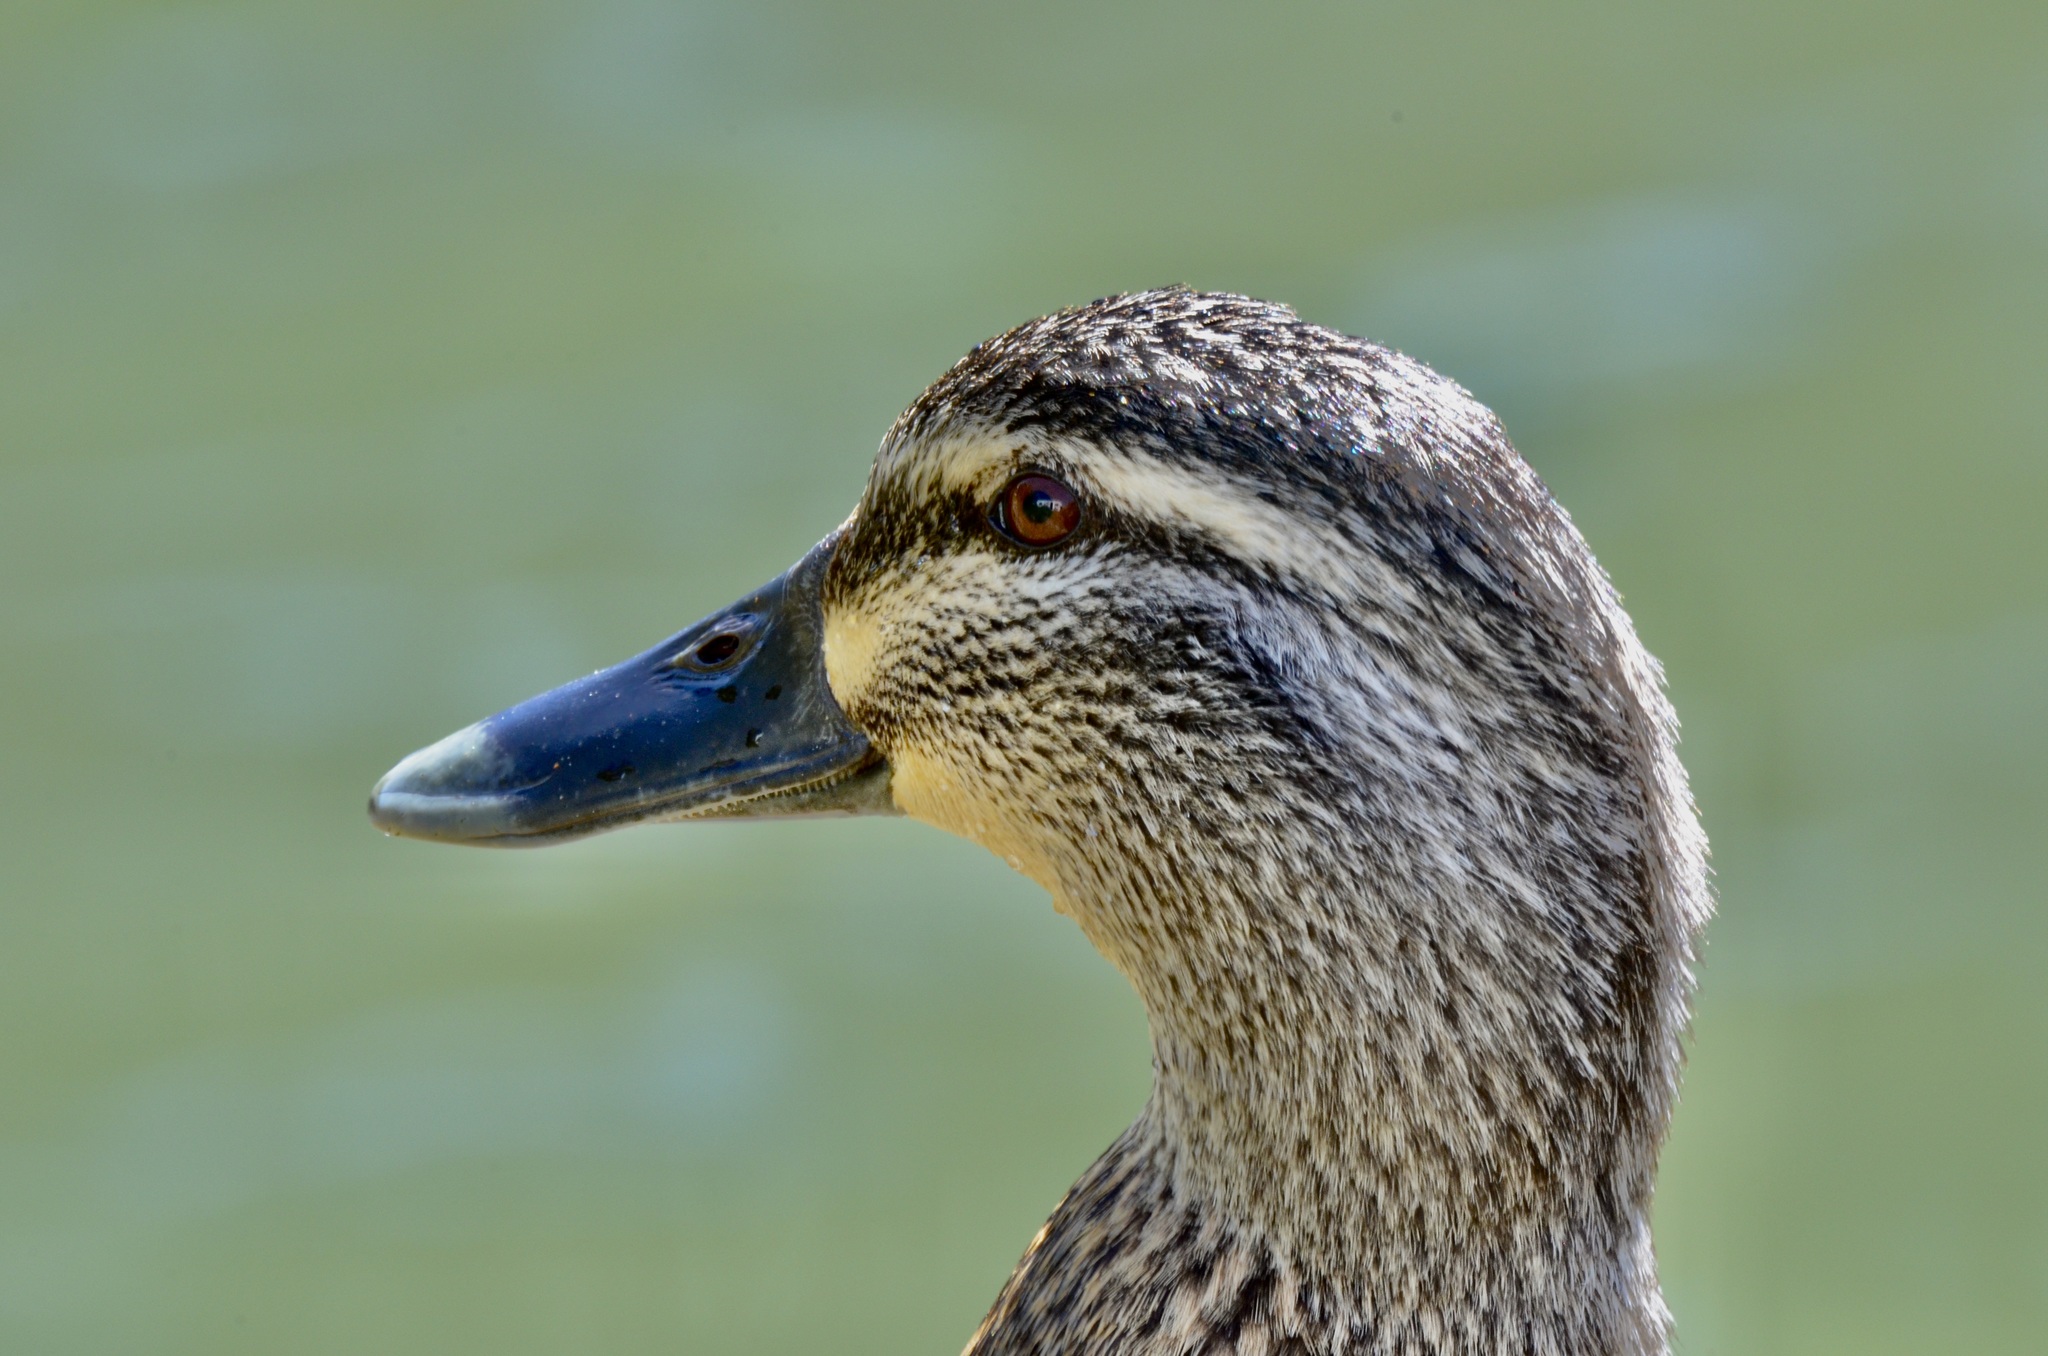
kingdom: Animalia
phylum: Chordata
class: Aves
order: Anseriformes
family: Anatidae
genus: Anas
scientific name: Anas
